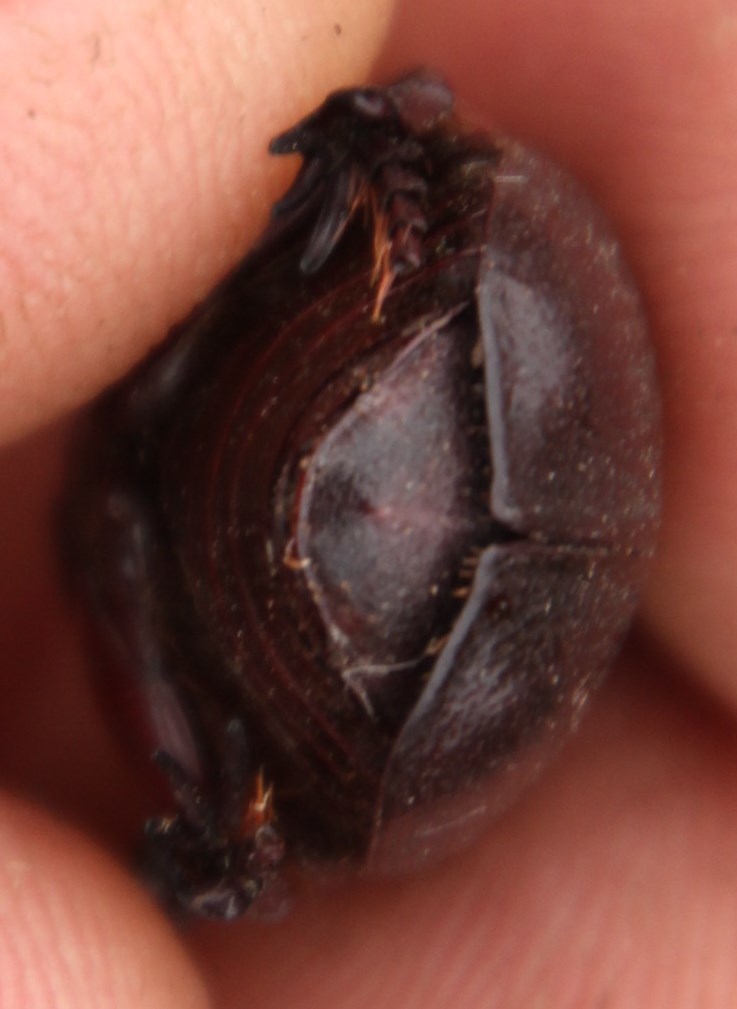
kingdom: Animalia
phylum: Arthropoda
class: Insecta
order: Coleoptera
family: Scarabaeidae
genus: Rhinocoeta
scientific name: Rhinocoeta sanguinipes
